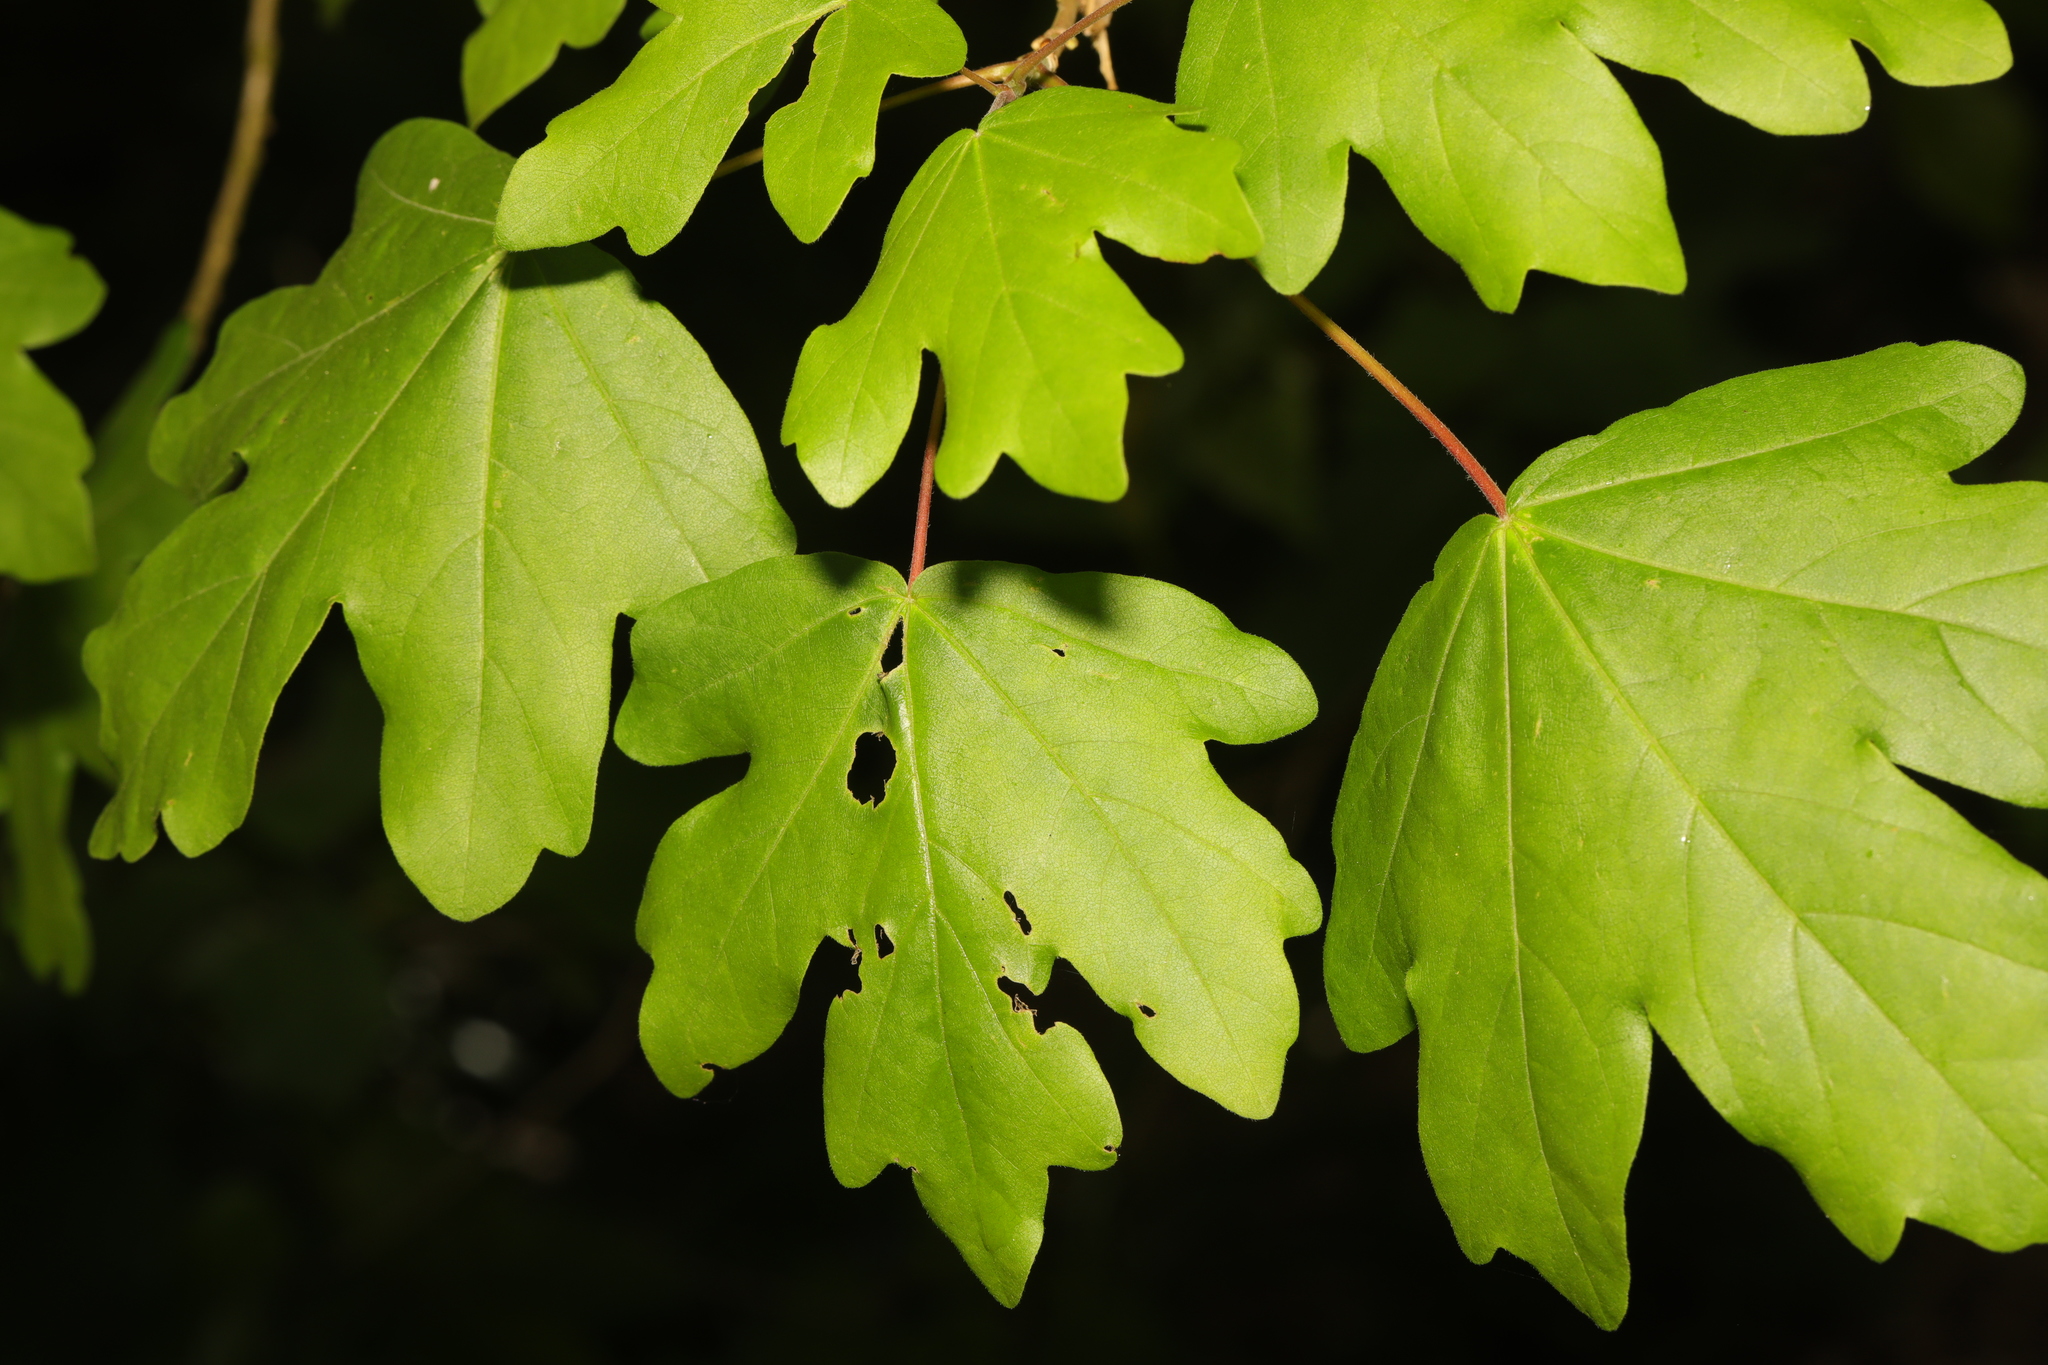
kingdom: Plantae
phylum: Tracheophyta
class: Magnoliopsida
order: Sapindales
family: Sapindaceae
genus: Acer
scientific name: Acer campestre
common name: Field maple
